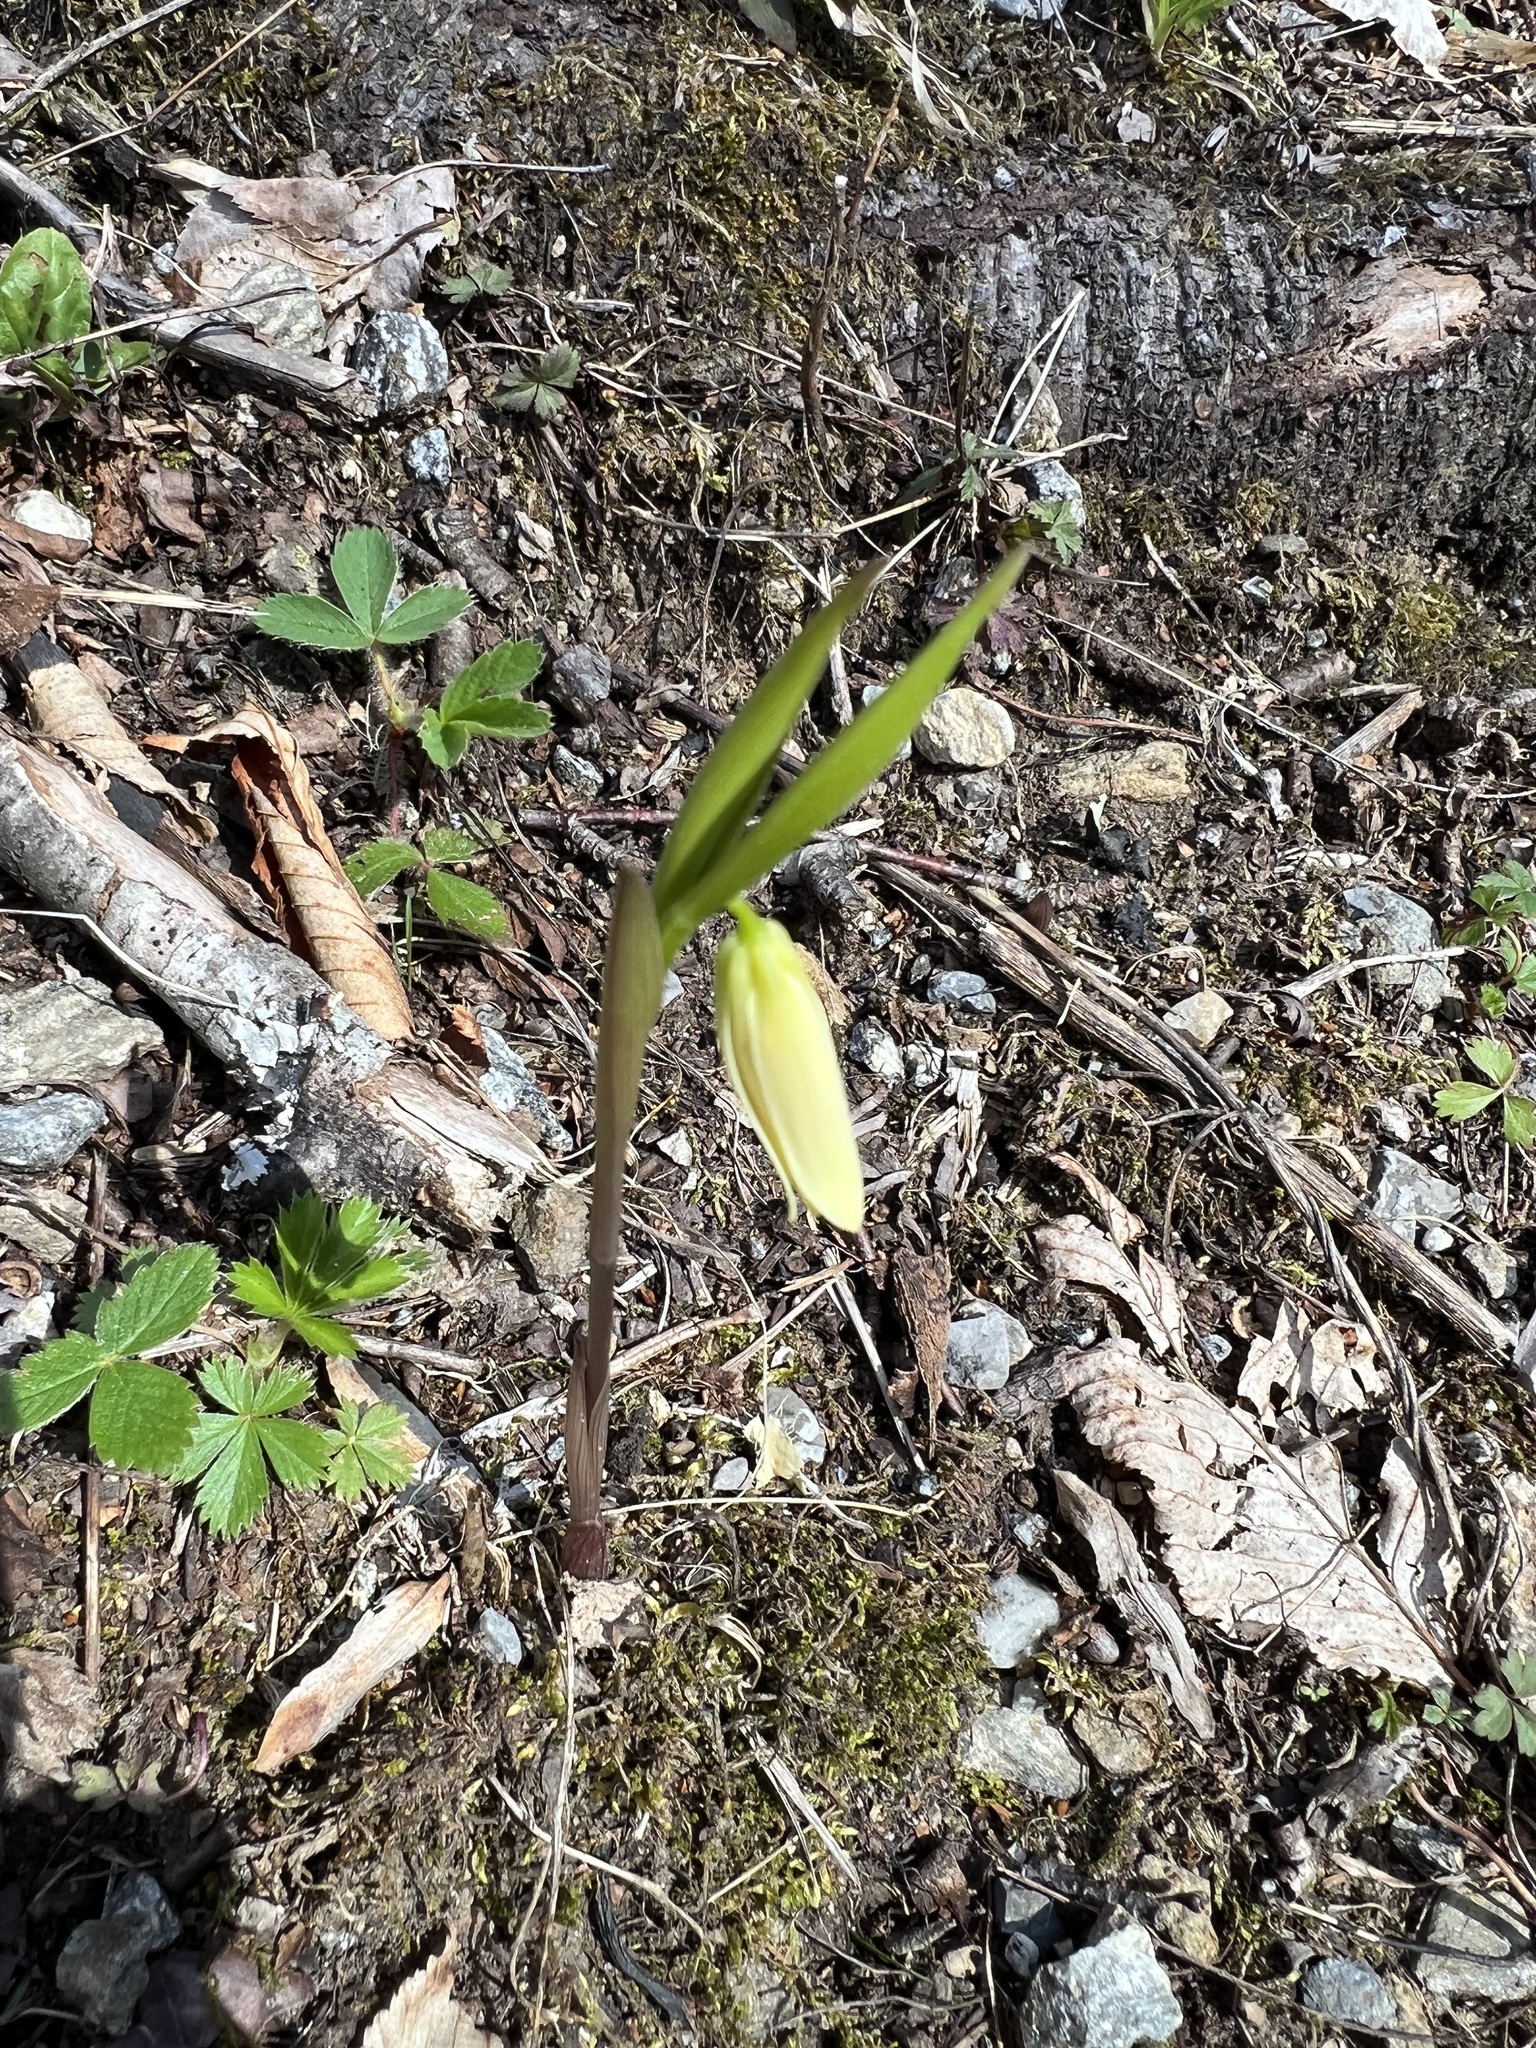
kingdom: Plantae
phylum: Tracheophyta
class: Liliopsida
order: Liliales
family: Colchicaceae
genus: Uvularia
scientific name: Uvularia puberula
